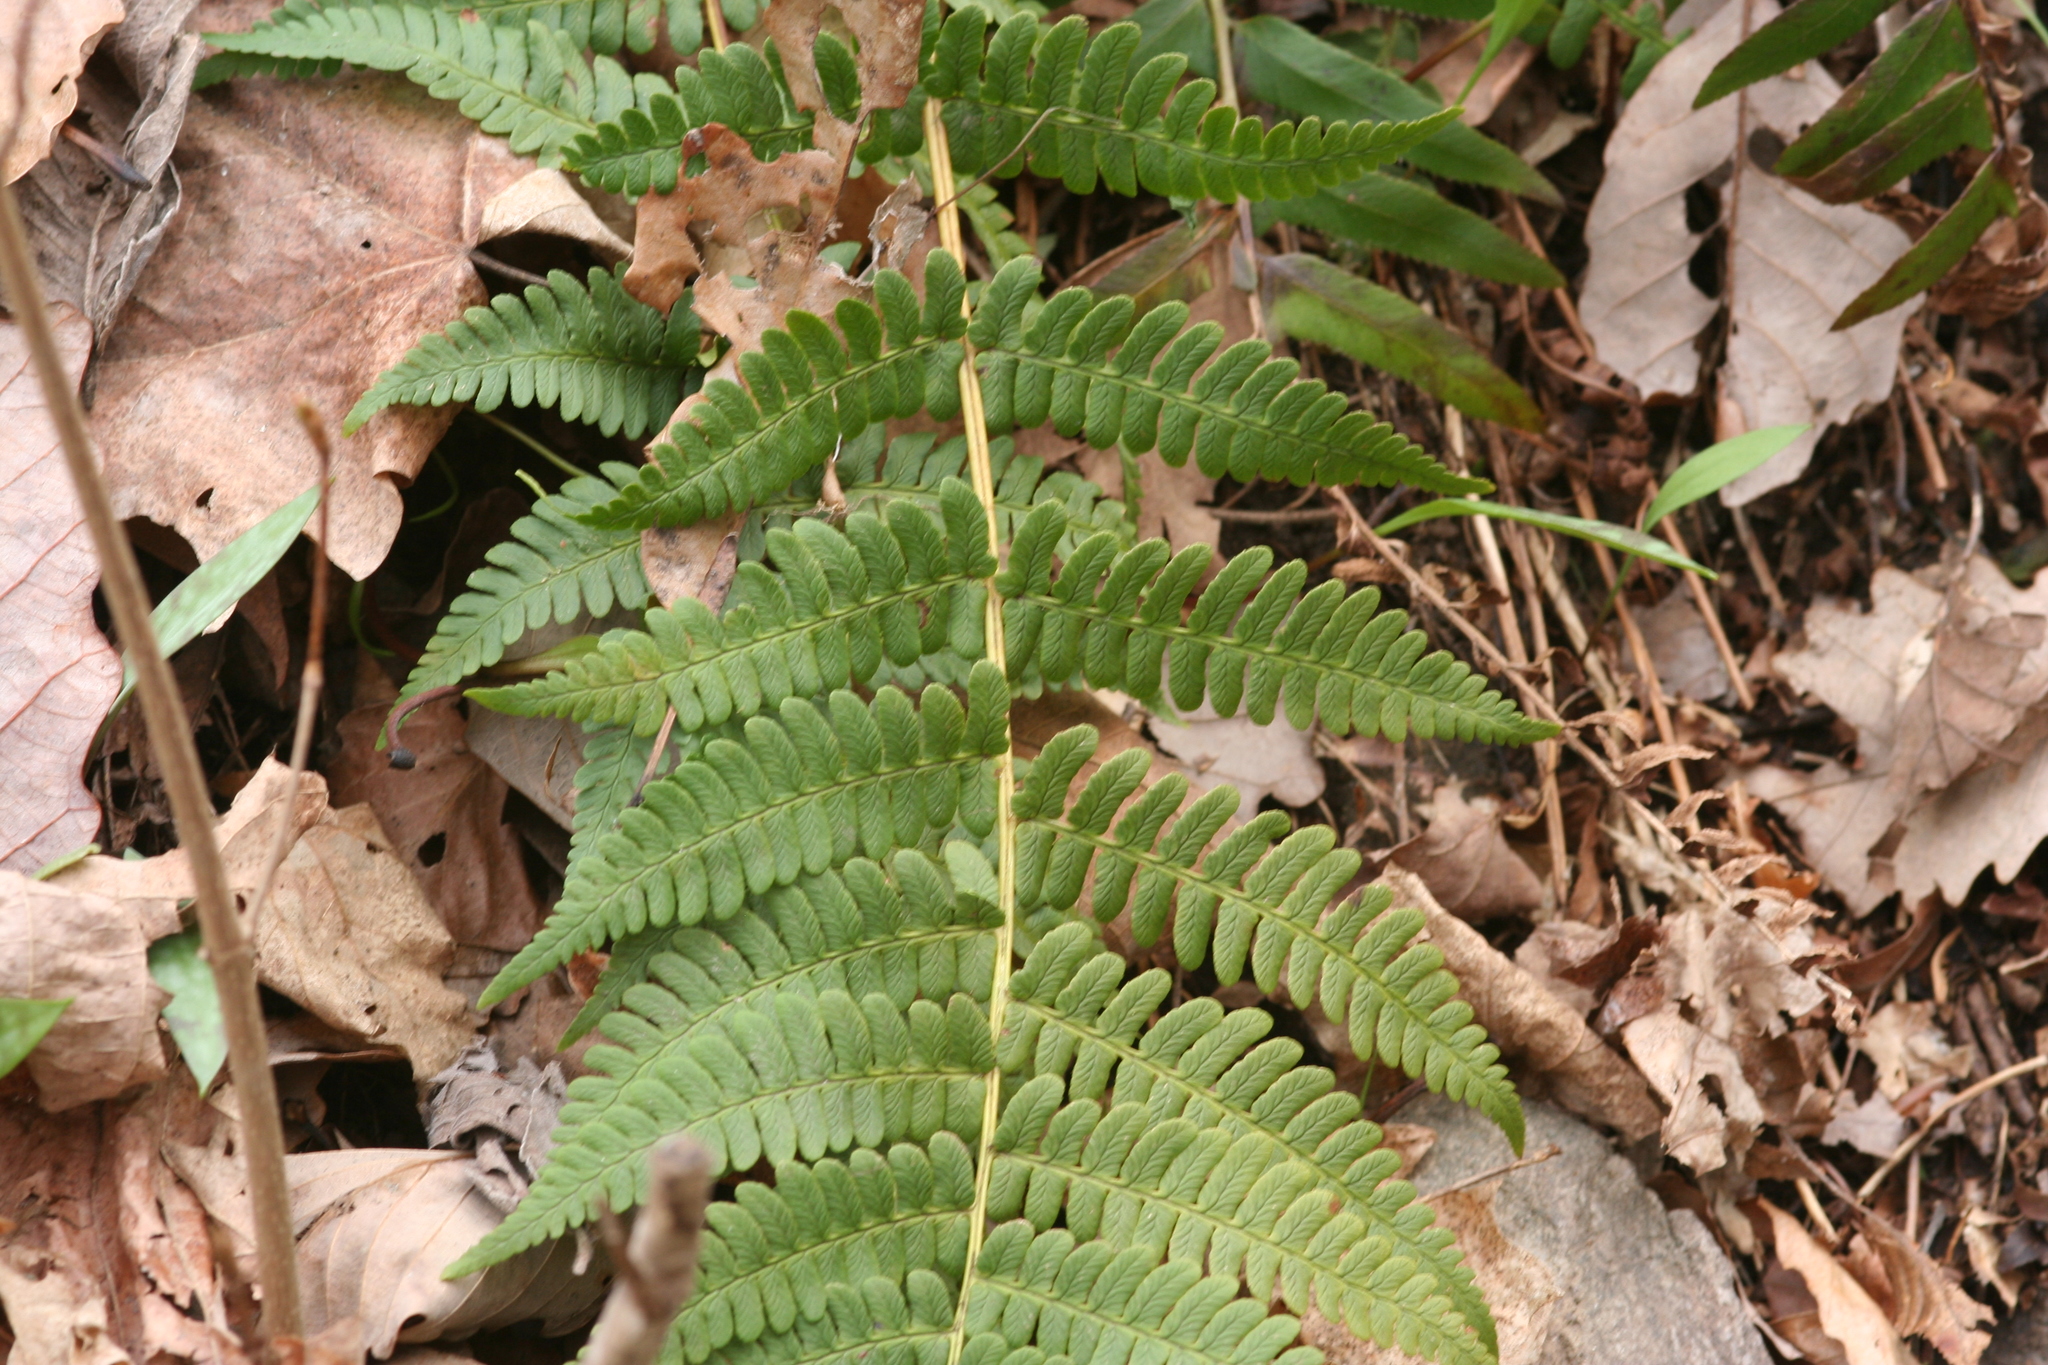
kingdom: Plantae
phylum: Tracheophyta
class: Polypodiopsida
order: Polypodiales
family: Dryopteridaceae
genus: Dryopteris
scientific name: Dryopteris marginalis
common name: Marginal wood fern
